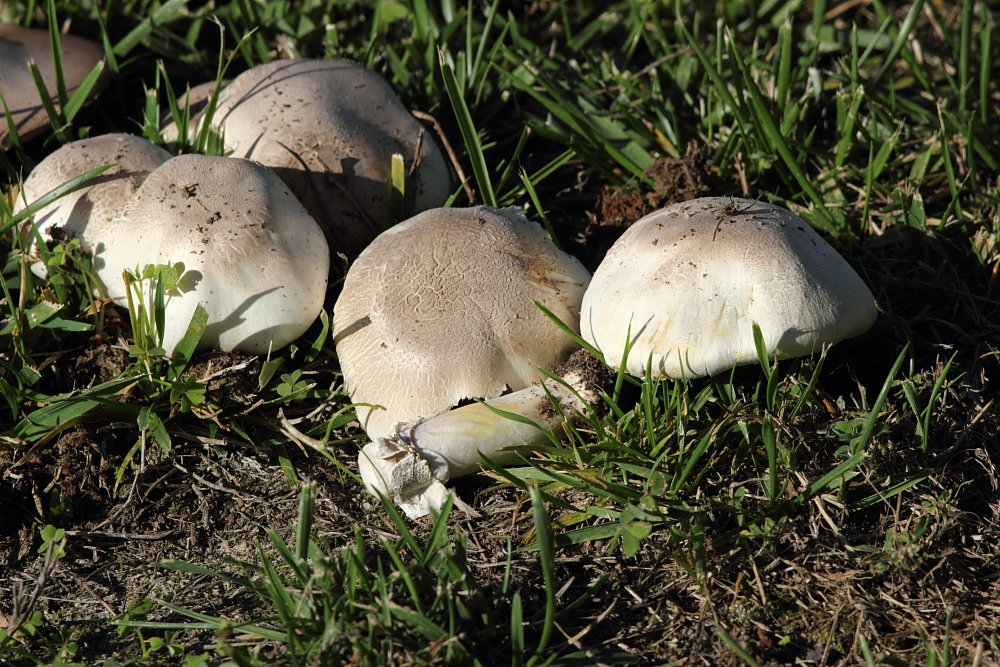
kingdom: Fungi
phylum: Basidiomycota
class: Agaricomycetes
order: Agaricales
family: Agaricaceae
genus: Agaricus
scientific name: Agaricus xanthodermus
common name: Yellow stainer
